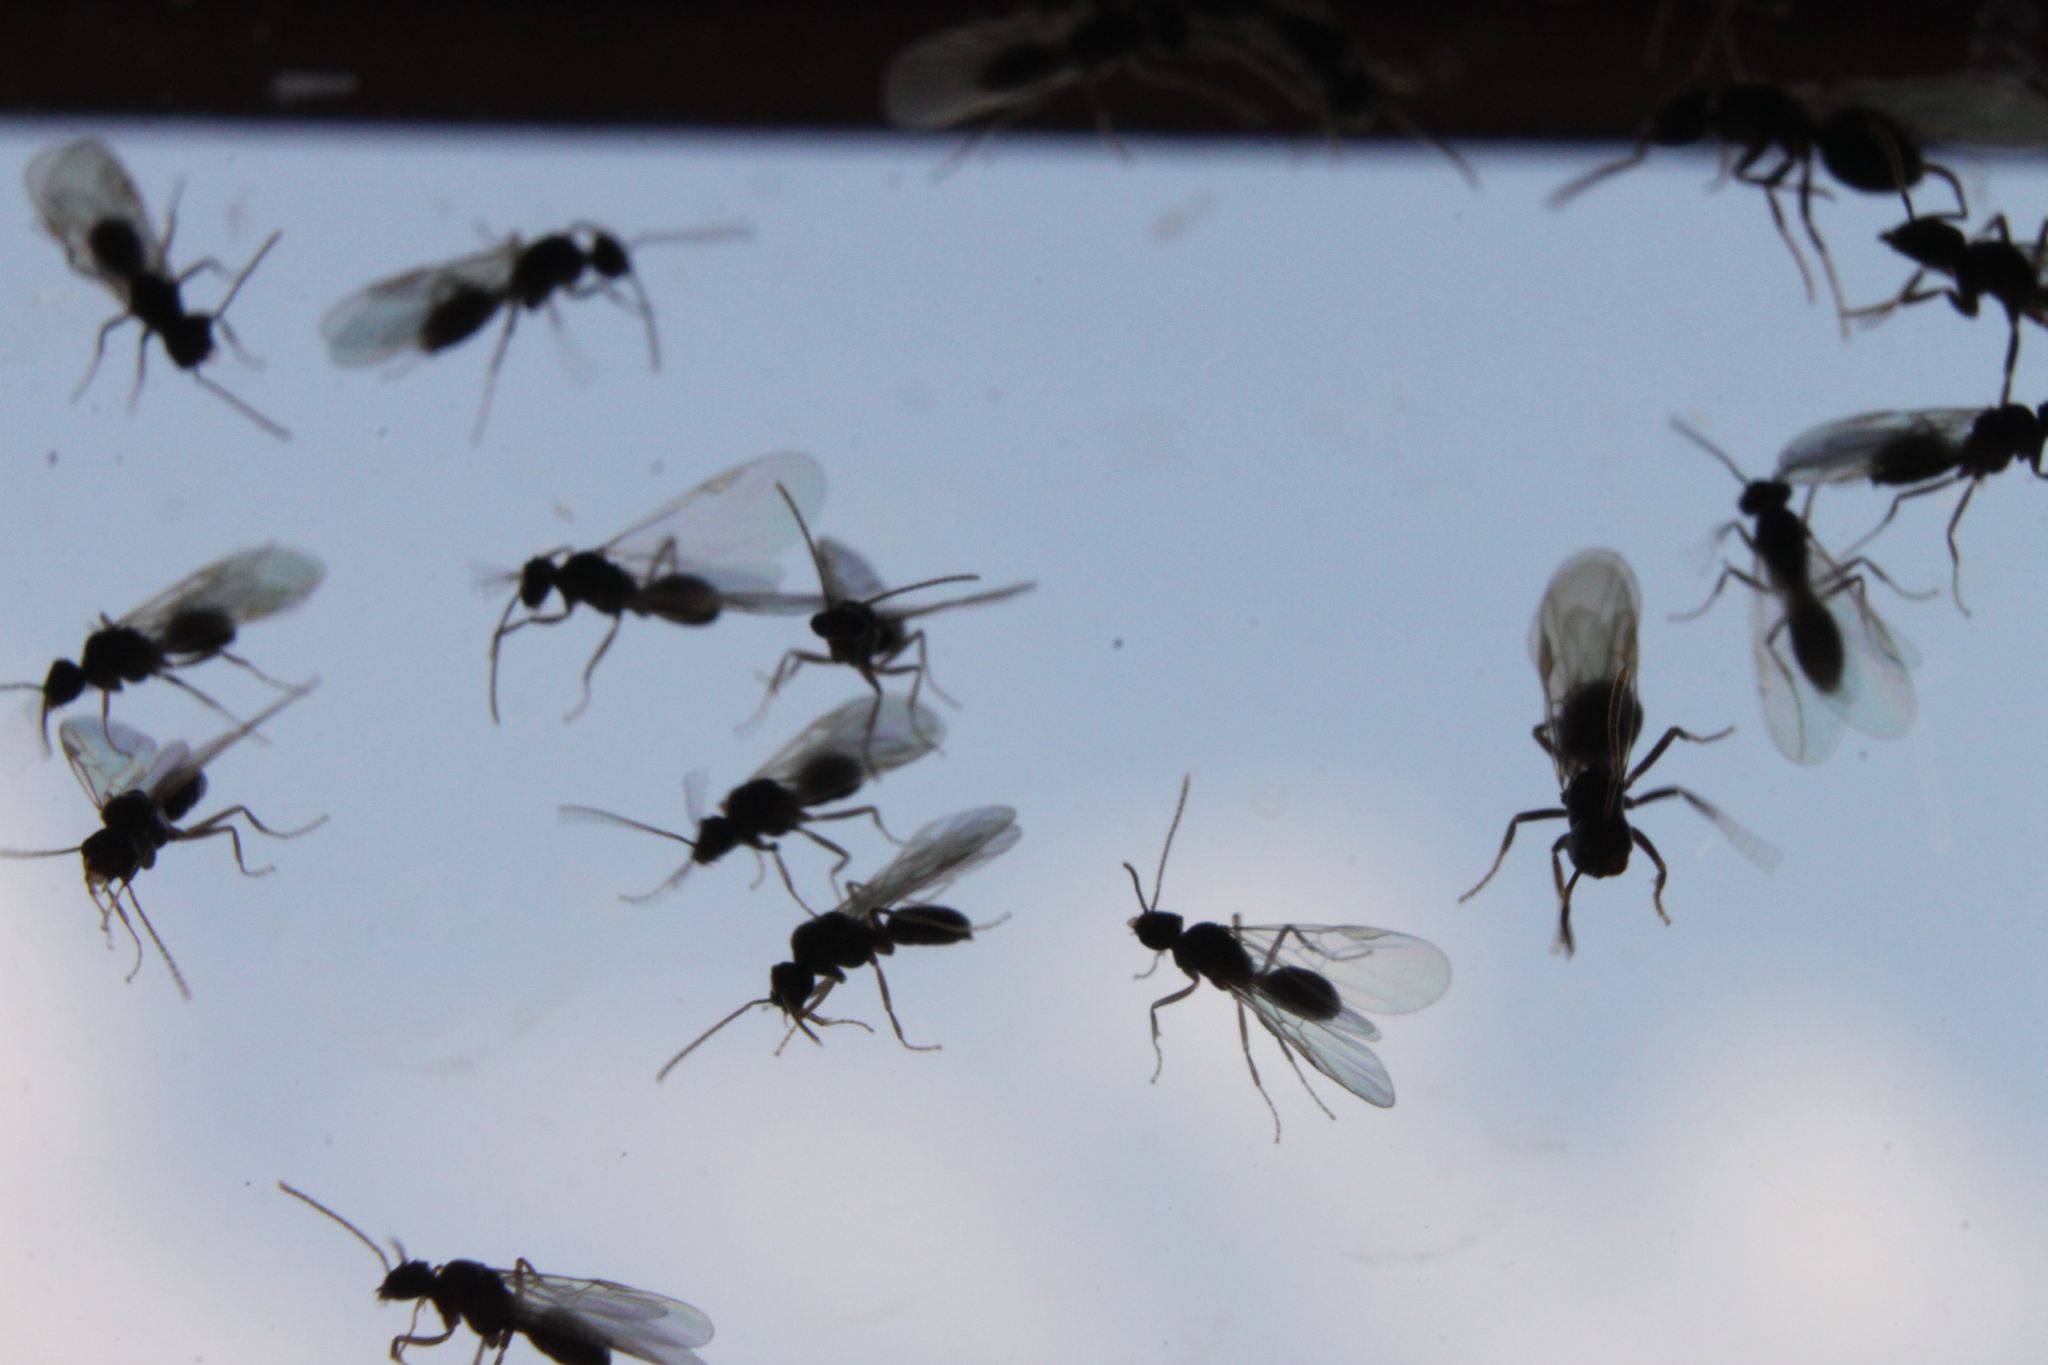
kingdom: Animalia
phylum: Arthropoda
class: Insecta
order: Hymenoptera
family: Formicidae
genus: Lasius
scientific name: Lasius fuliginosus
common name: Jet ant
